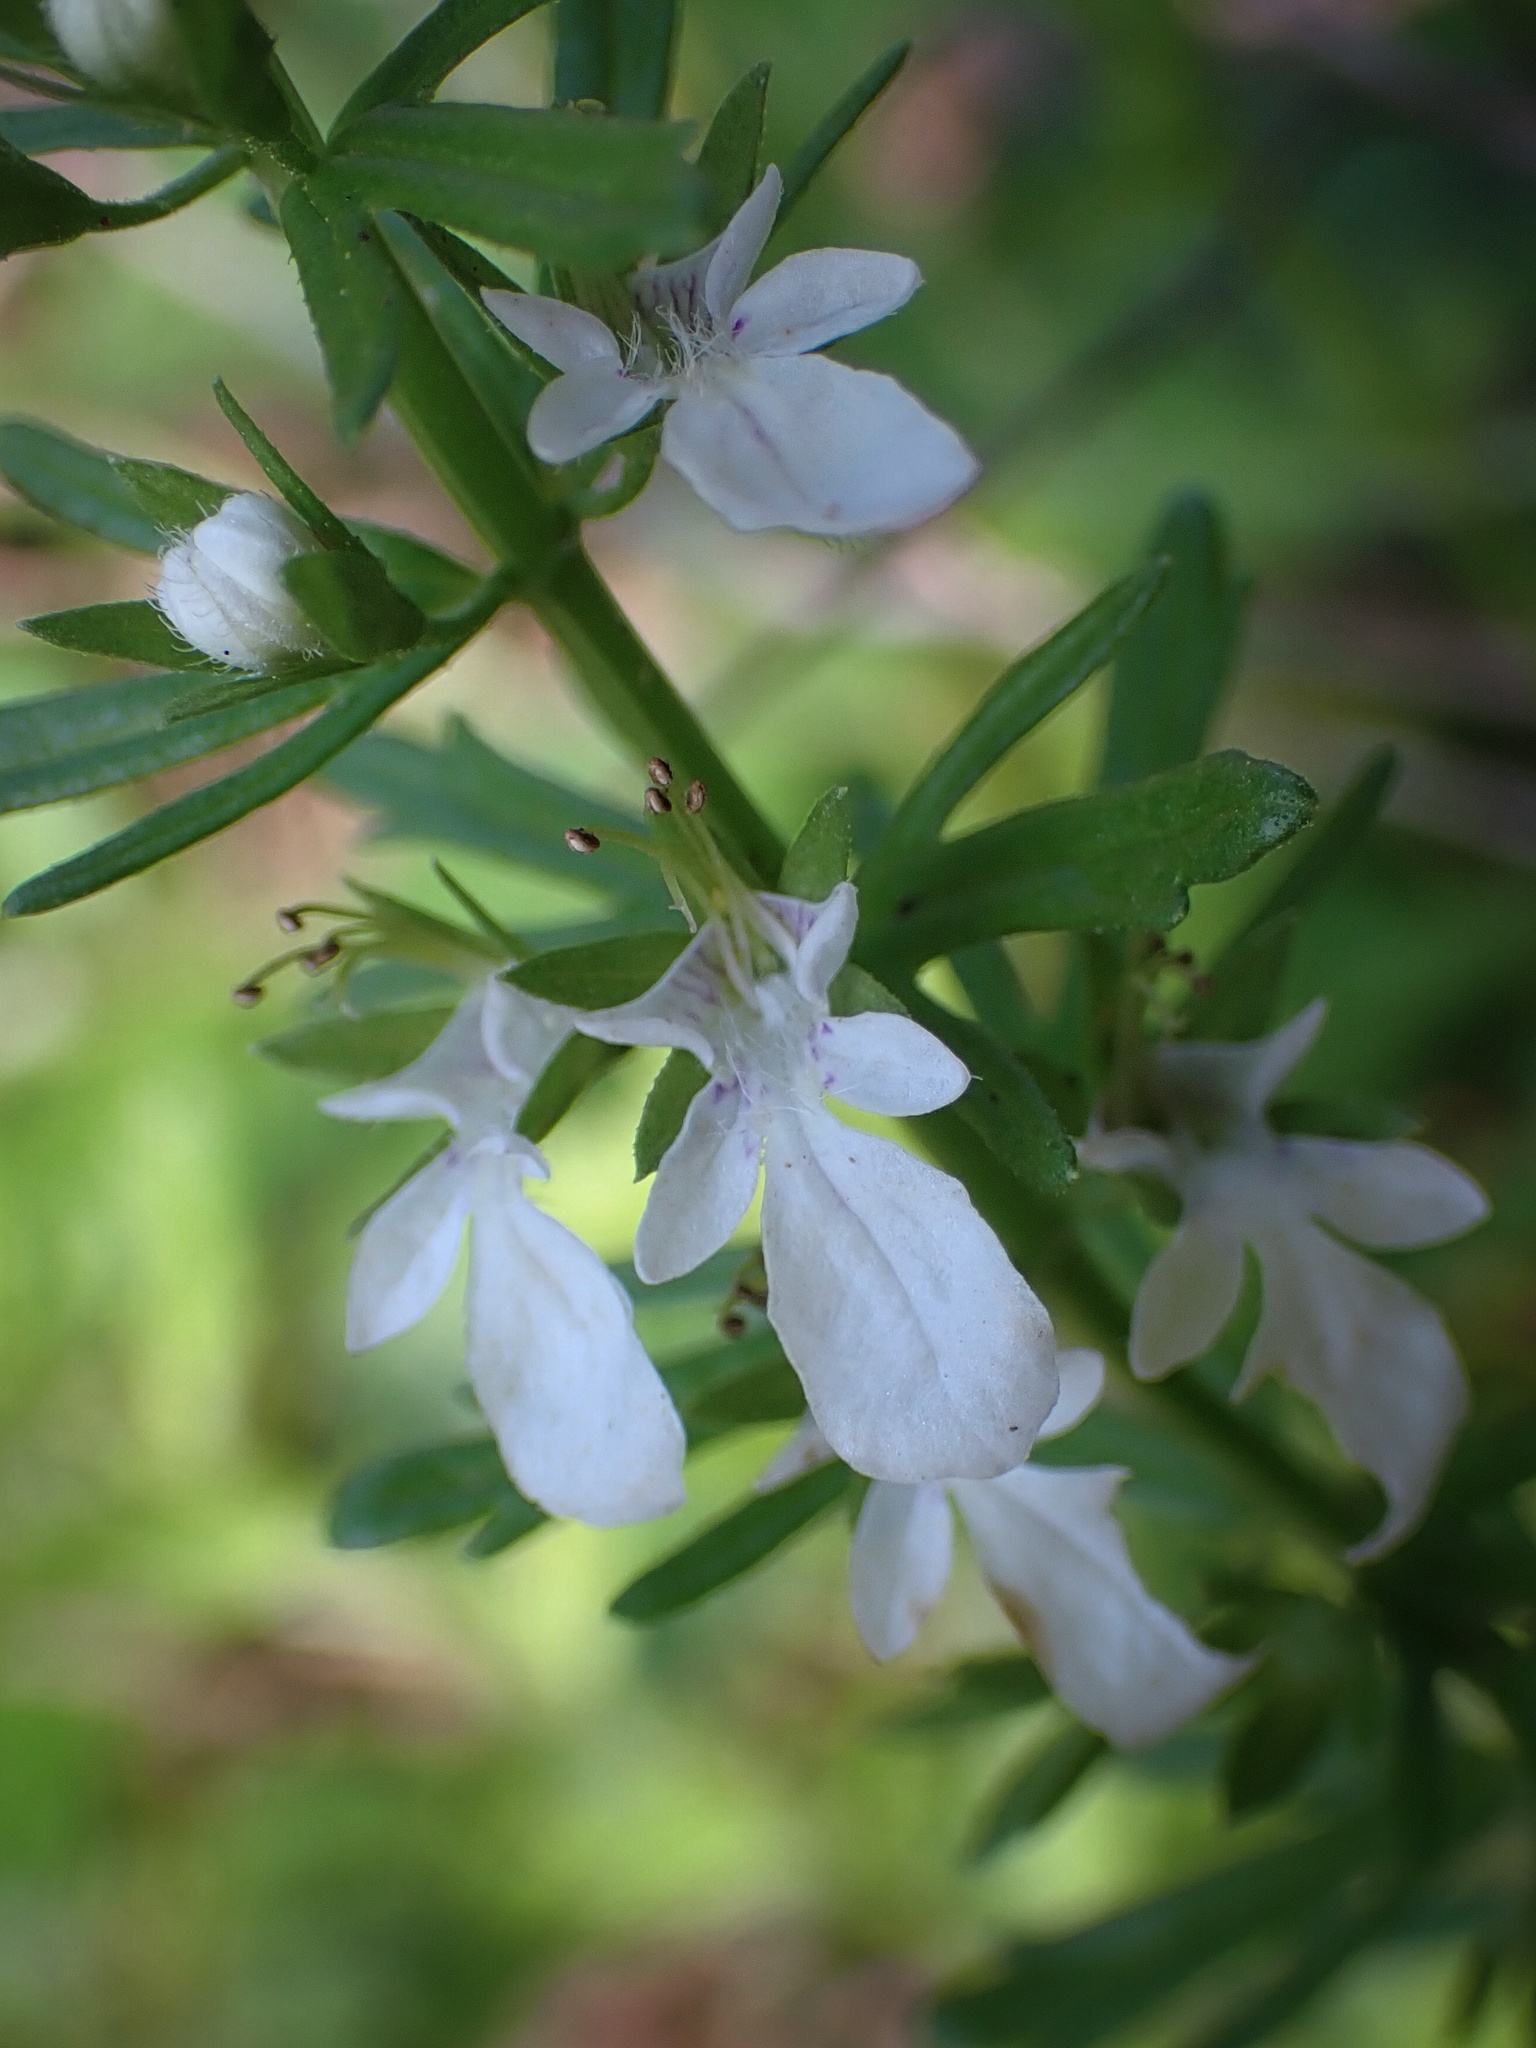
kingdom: Plantae
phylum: Tracheophyta
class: Magnoliopsida
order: Lamiales
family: Lamiaceae
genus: Teucrium
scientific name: Teucrium cubense
